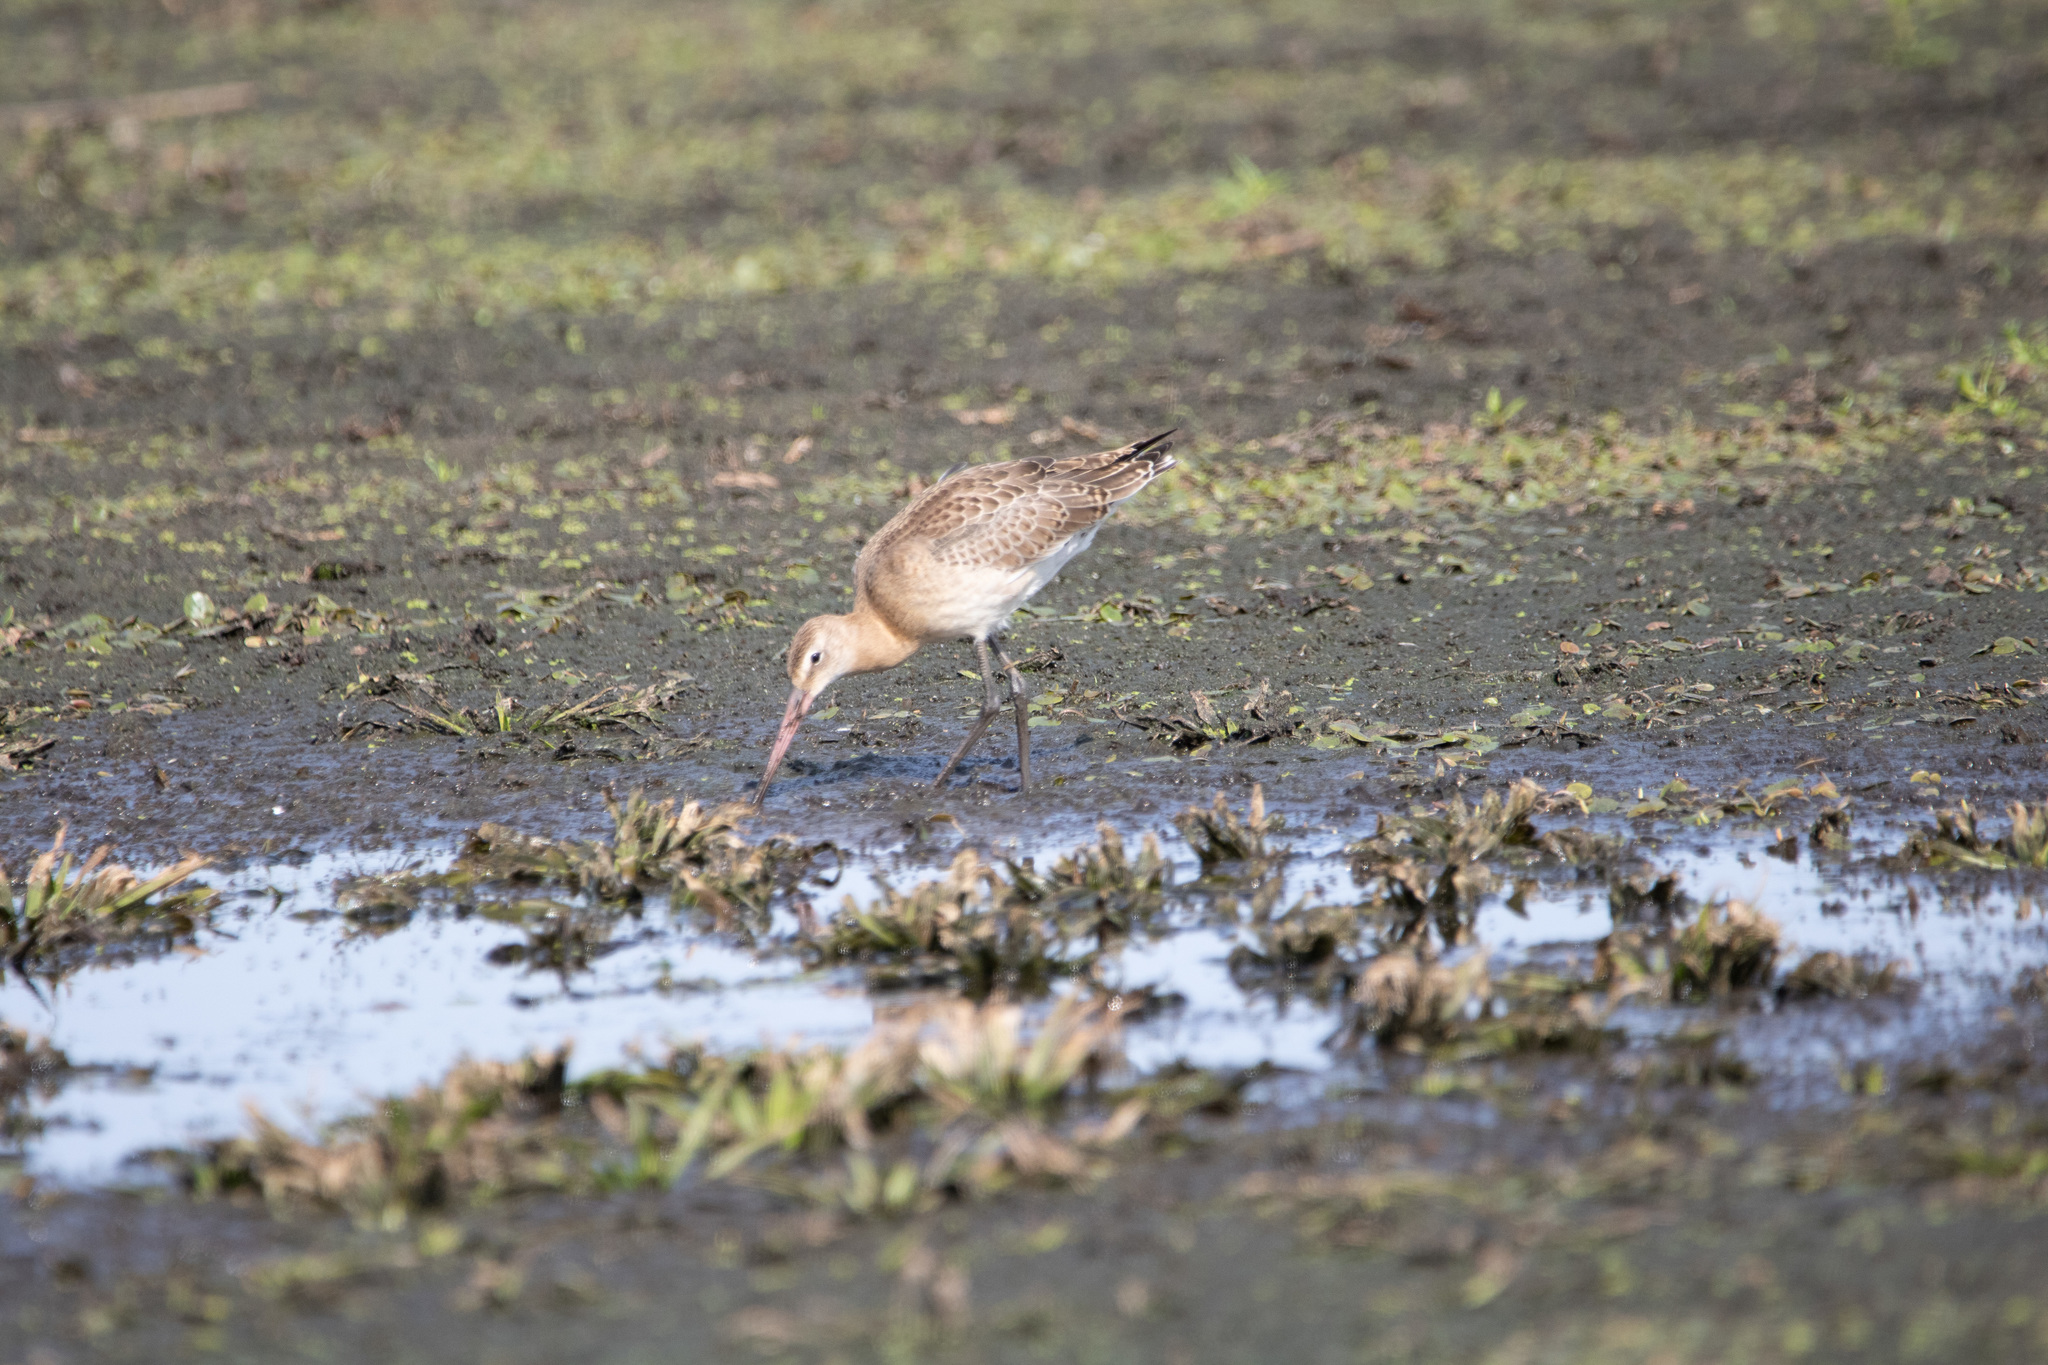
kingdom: Animalia
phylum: Chordata
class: Aves
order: Charadriiformes
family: Scolopacidae
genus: Limosa
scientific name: Limosa limosa
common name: Black-tailed godwit
